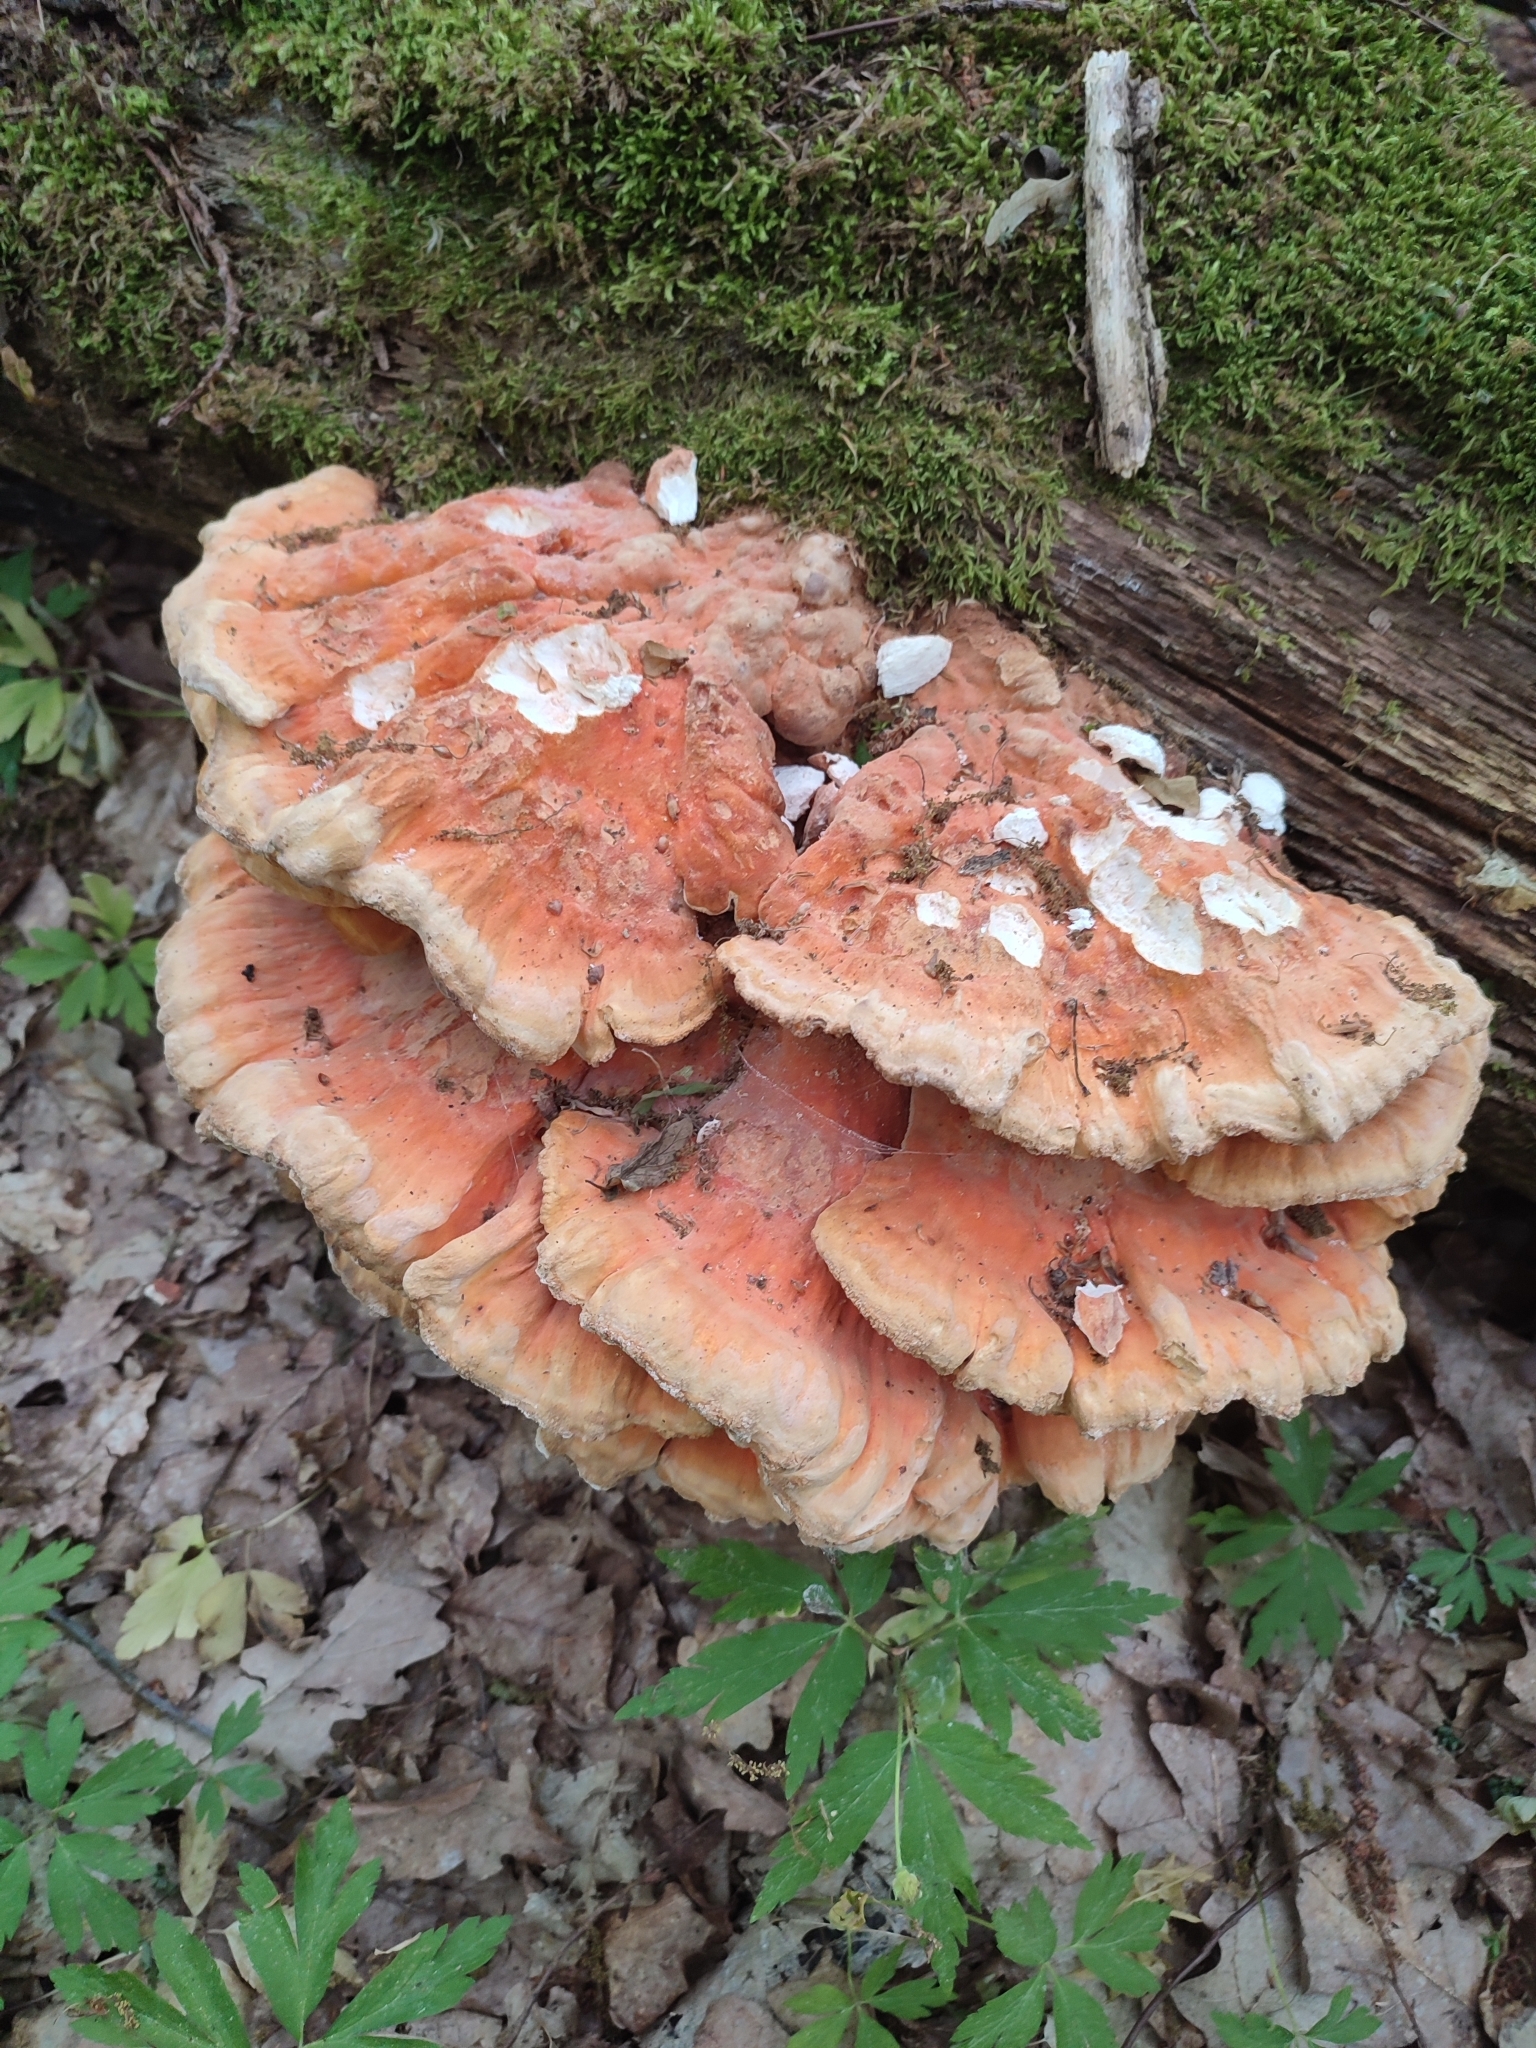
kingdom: Fungi
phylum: Basidiomycota
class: Agaricomycetes
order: Polyporales
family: Laetiporaceae
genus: Laetiporus
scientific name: Laetiporus sulphureus
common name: Chicken of the woods
